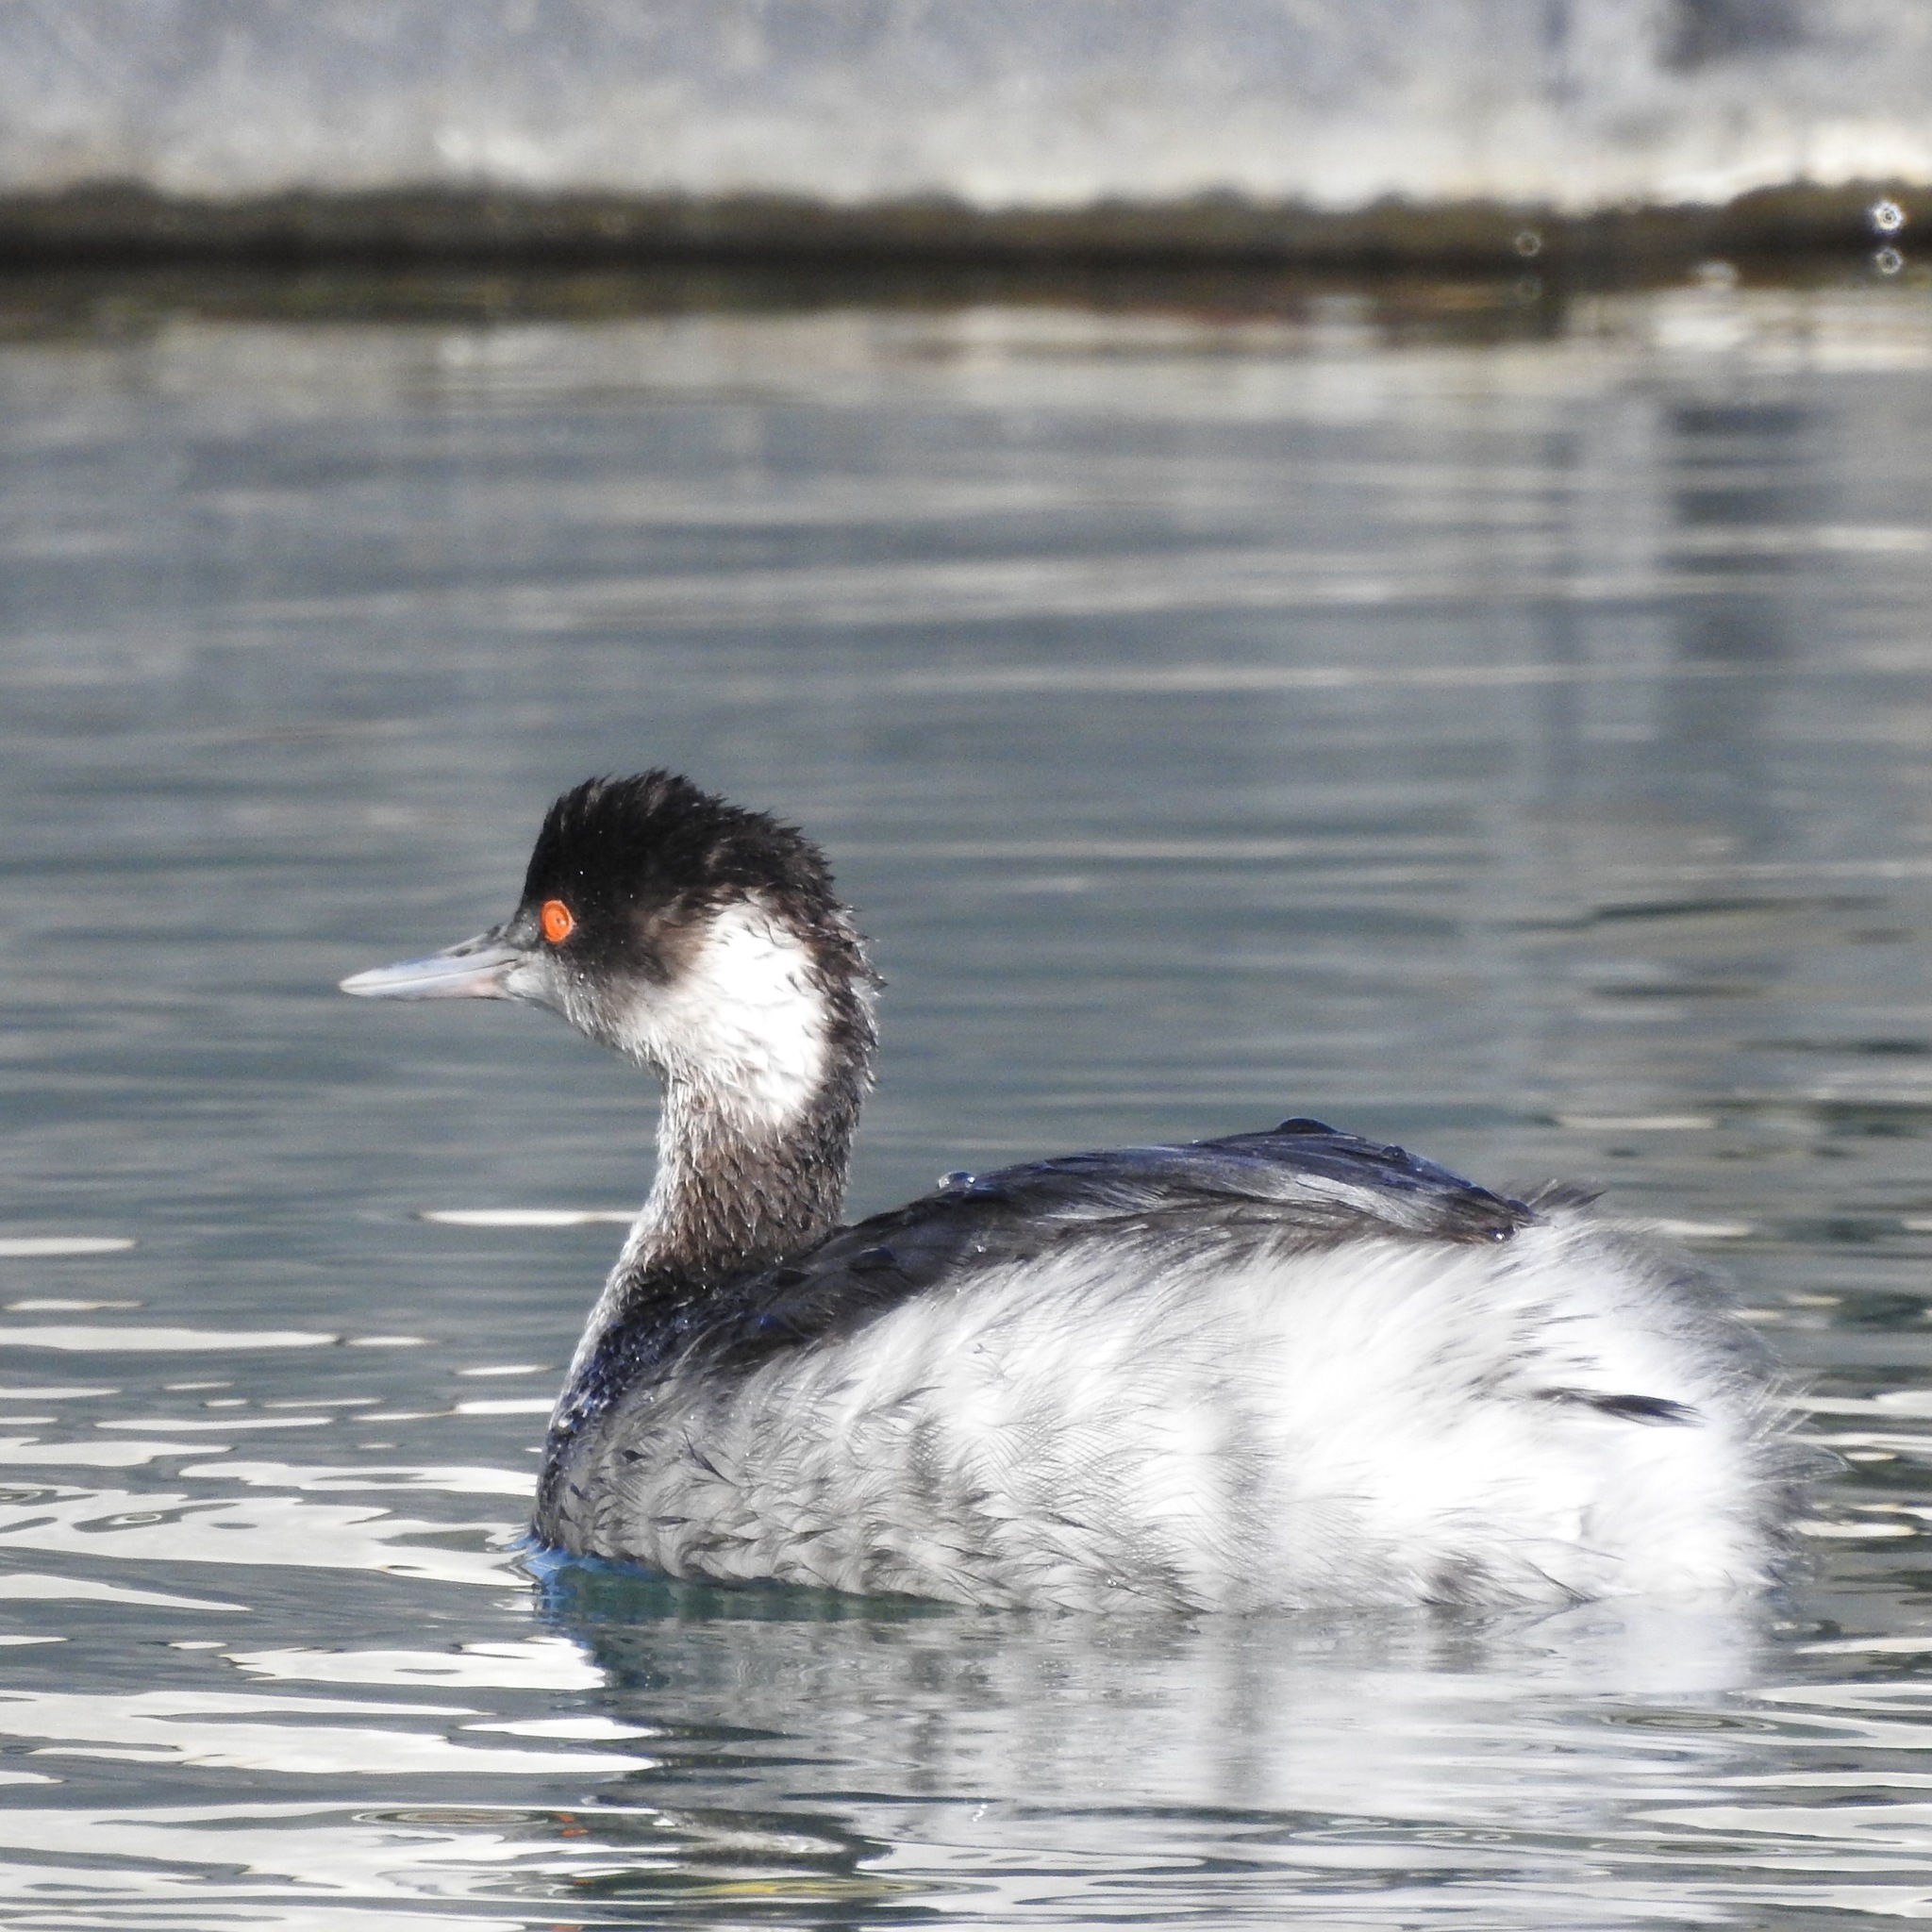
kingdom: Animalia
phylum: Chordata
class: Aves
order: Podicipediformes
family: Podicipedidae
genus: Podiceps
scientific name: Podiceps nigricollis
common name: Black-necked grebe
